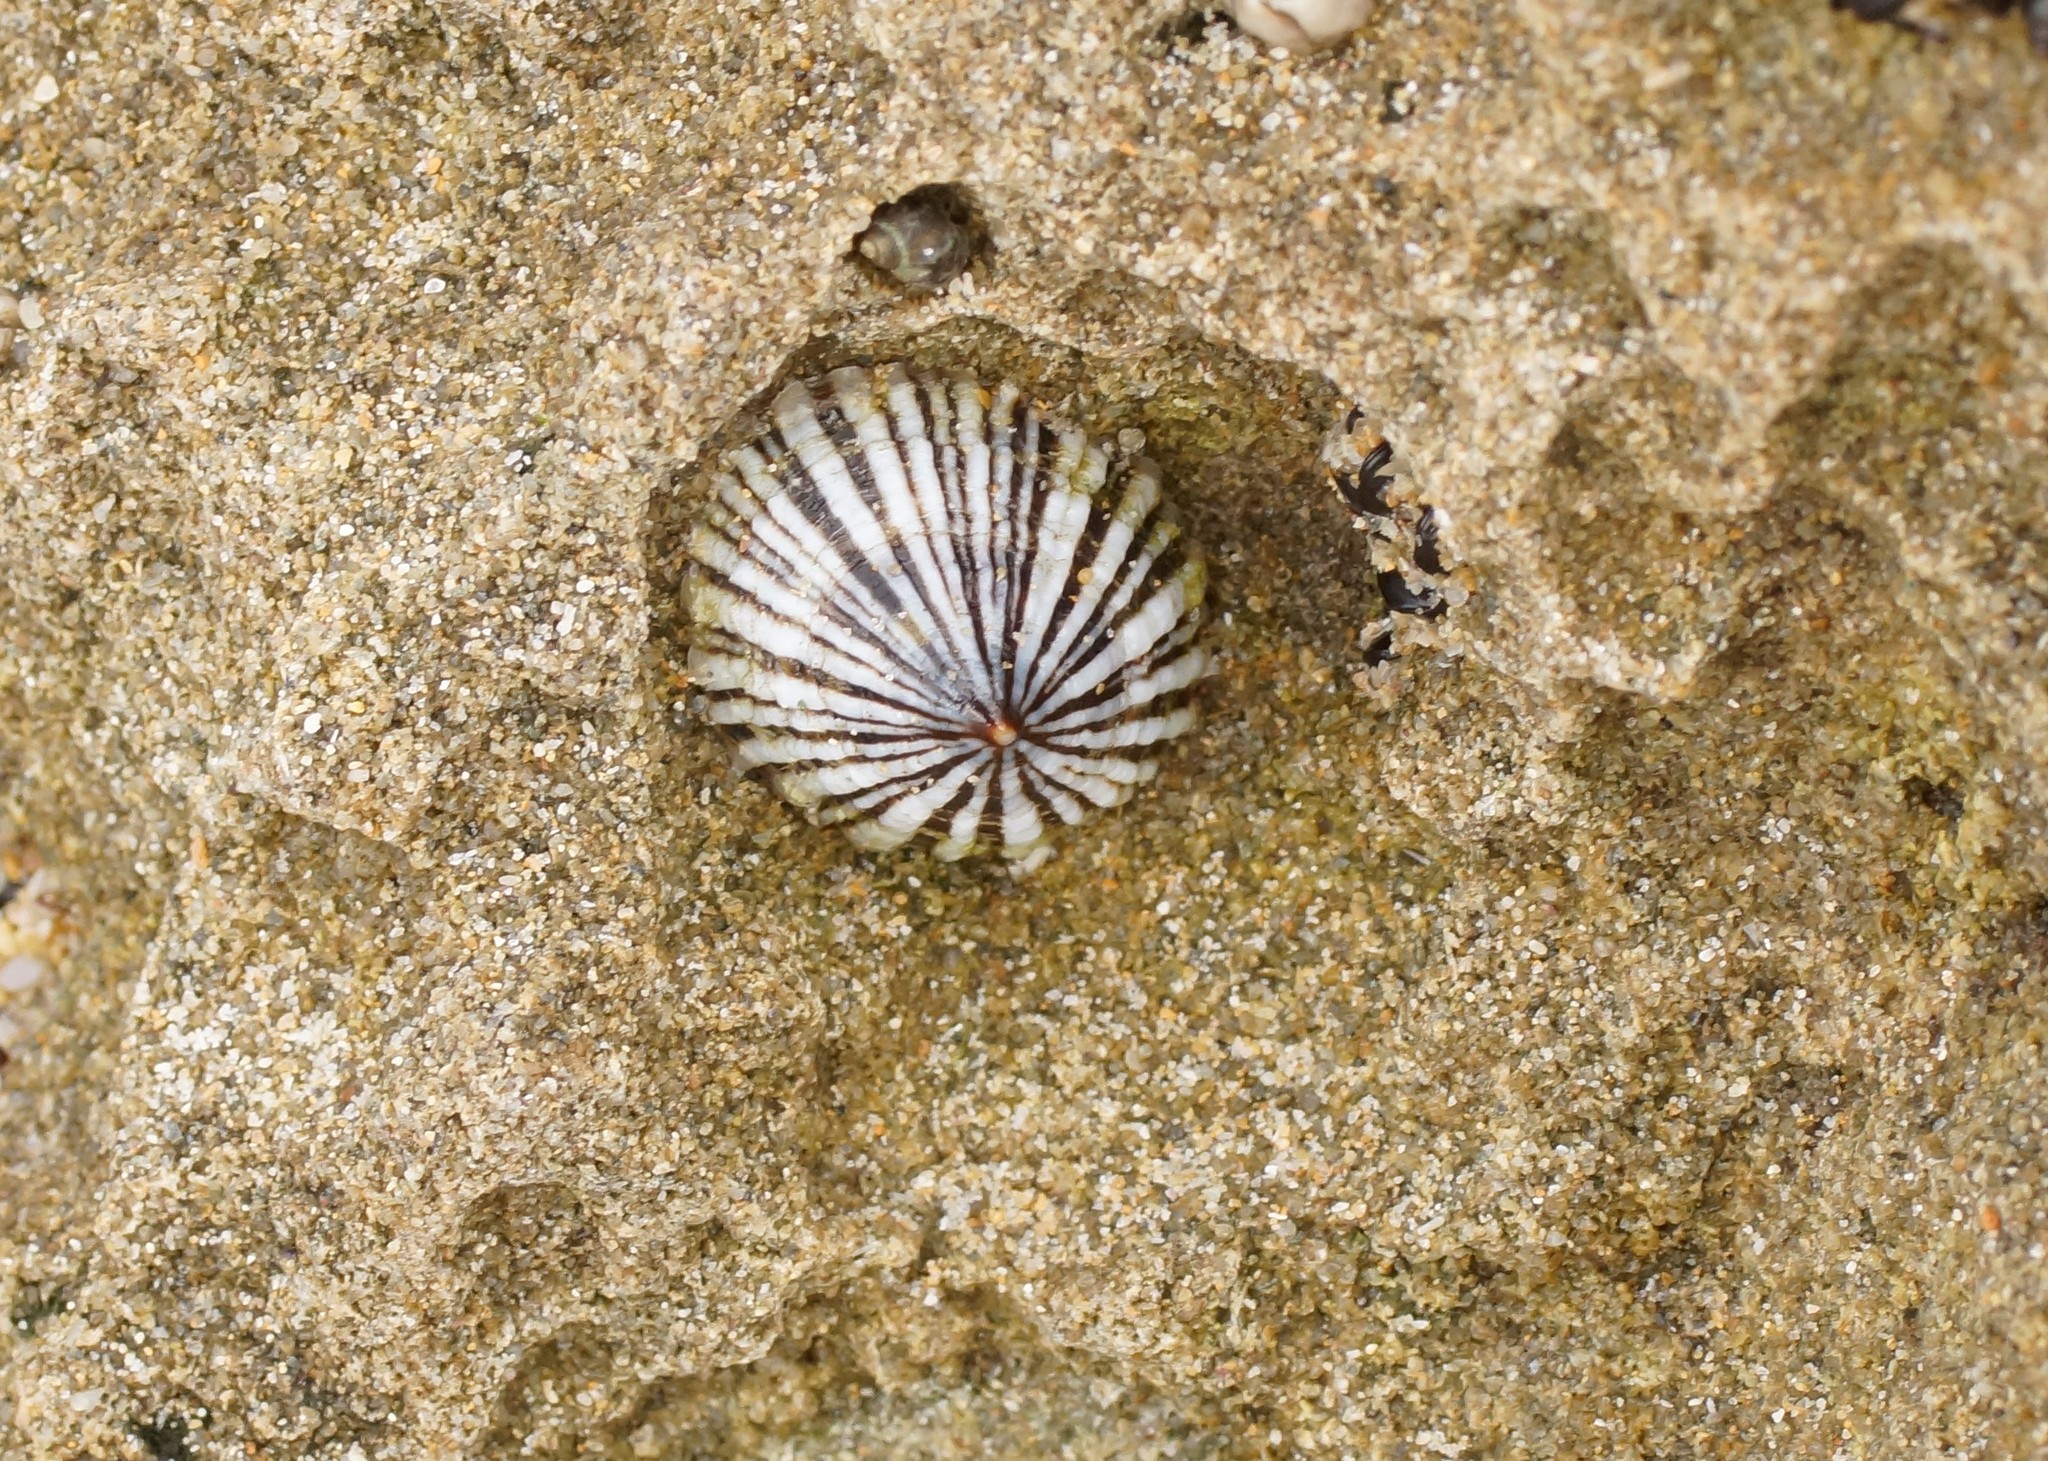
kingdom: Animalia
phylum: Mollusca
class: Gastropoda
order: Siphonariida
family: Siphonariidae
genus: Siphonaria
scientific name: Siphonaria funiculata
